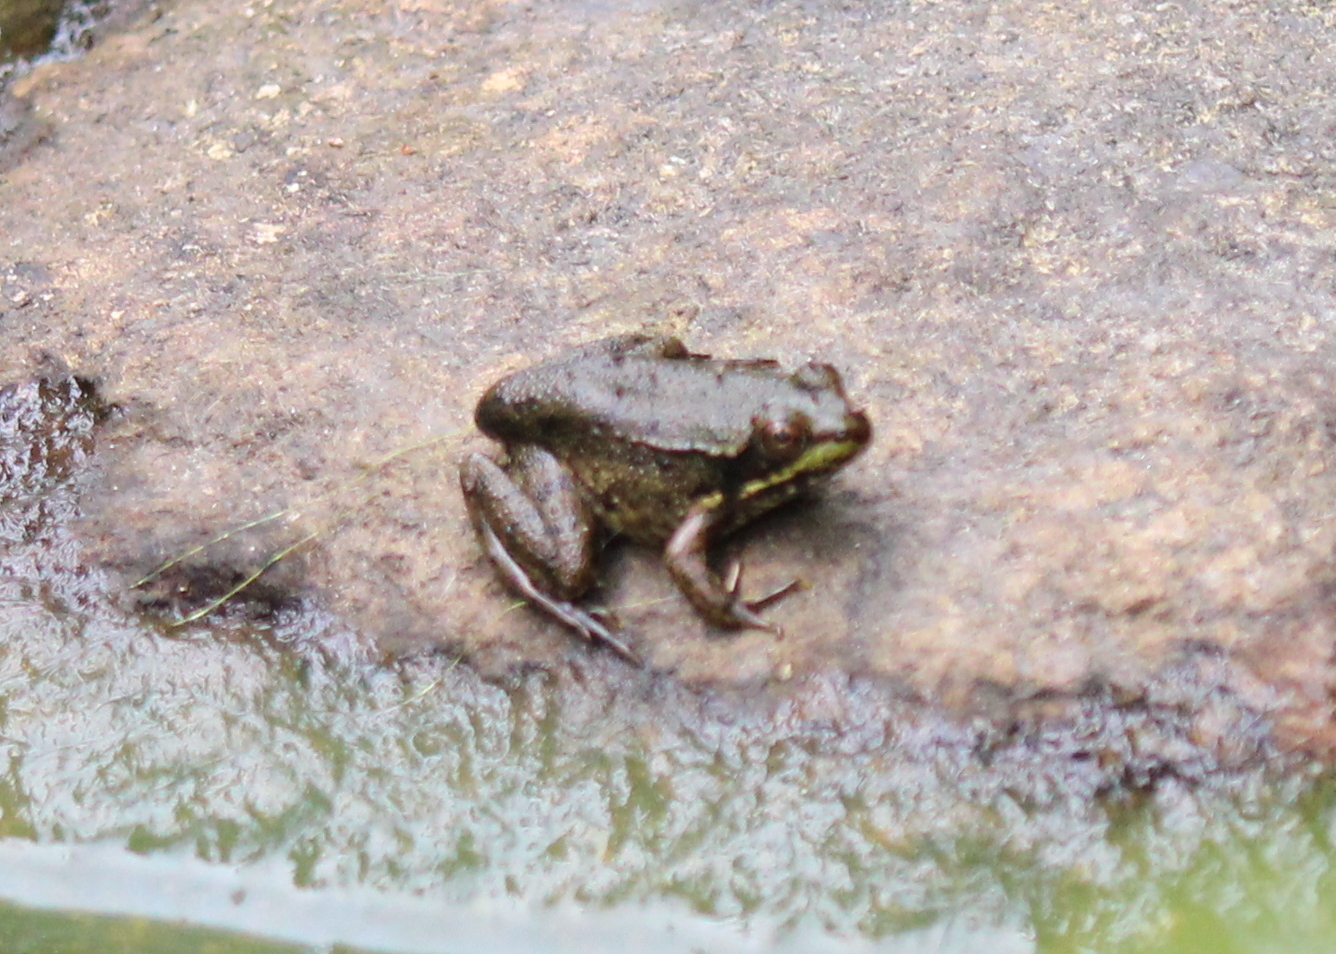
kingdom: Animalia
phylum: Chordata
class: Amphibia
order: Anura
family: Ranidae
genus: Lithobates
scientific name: Lithobates clamitans
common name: Green frog
